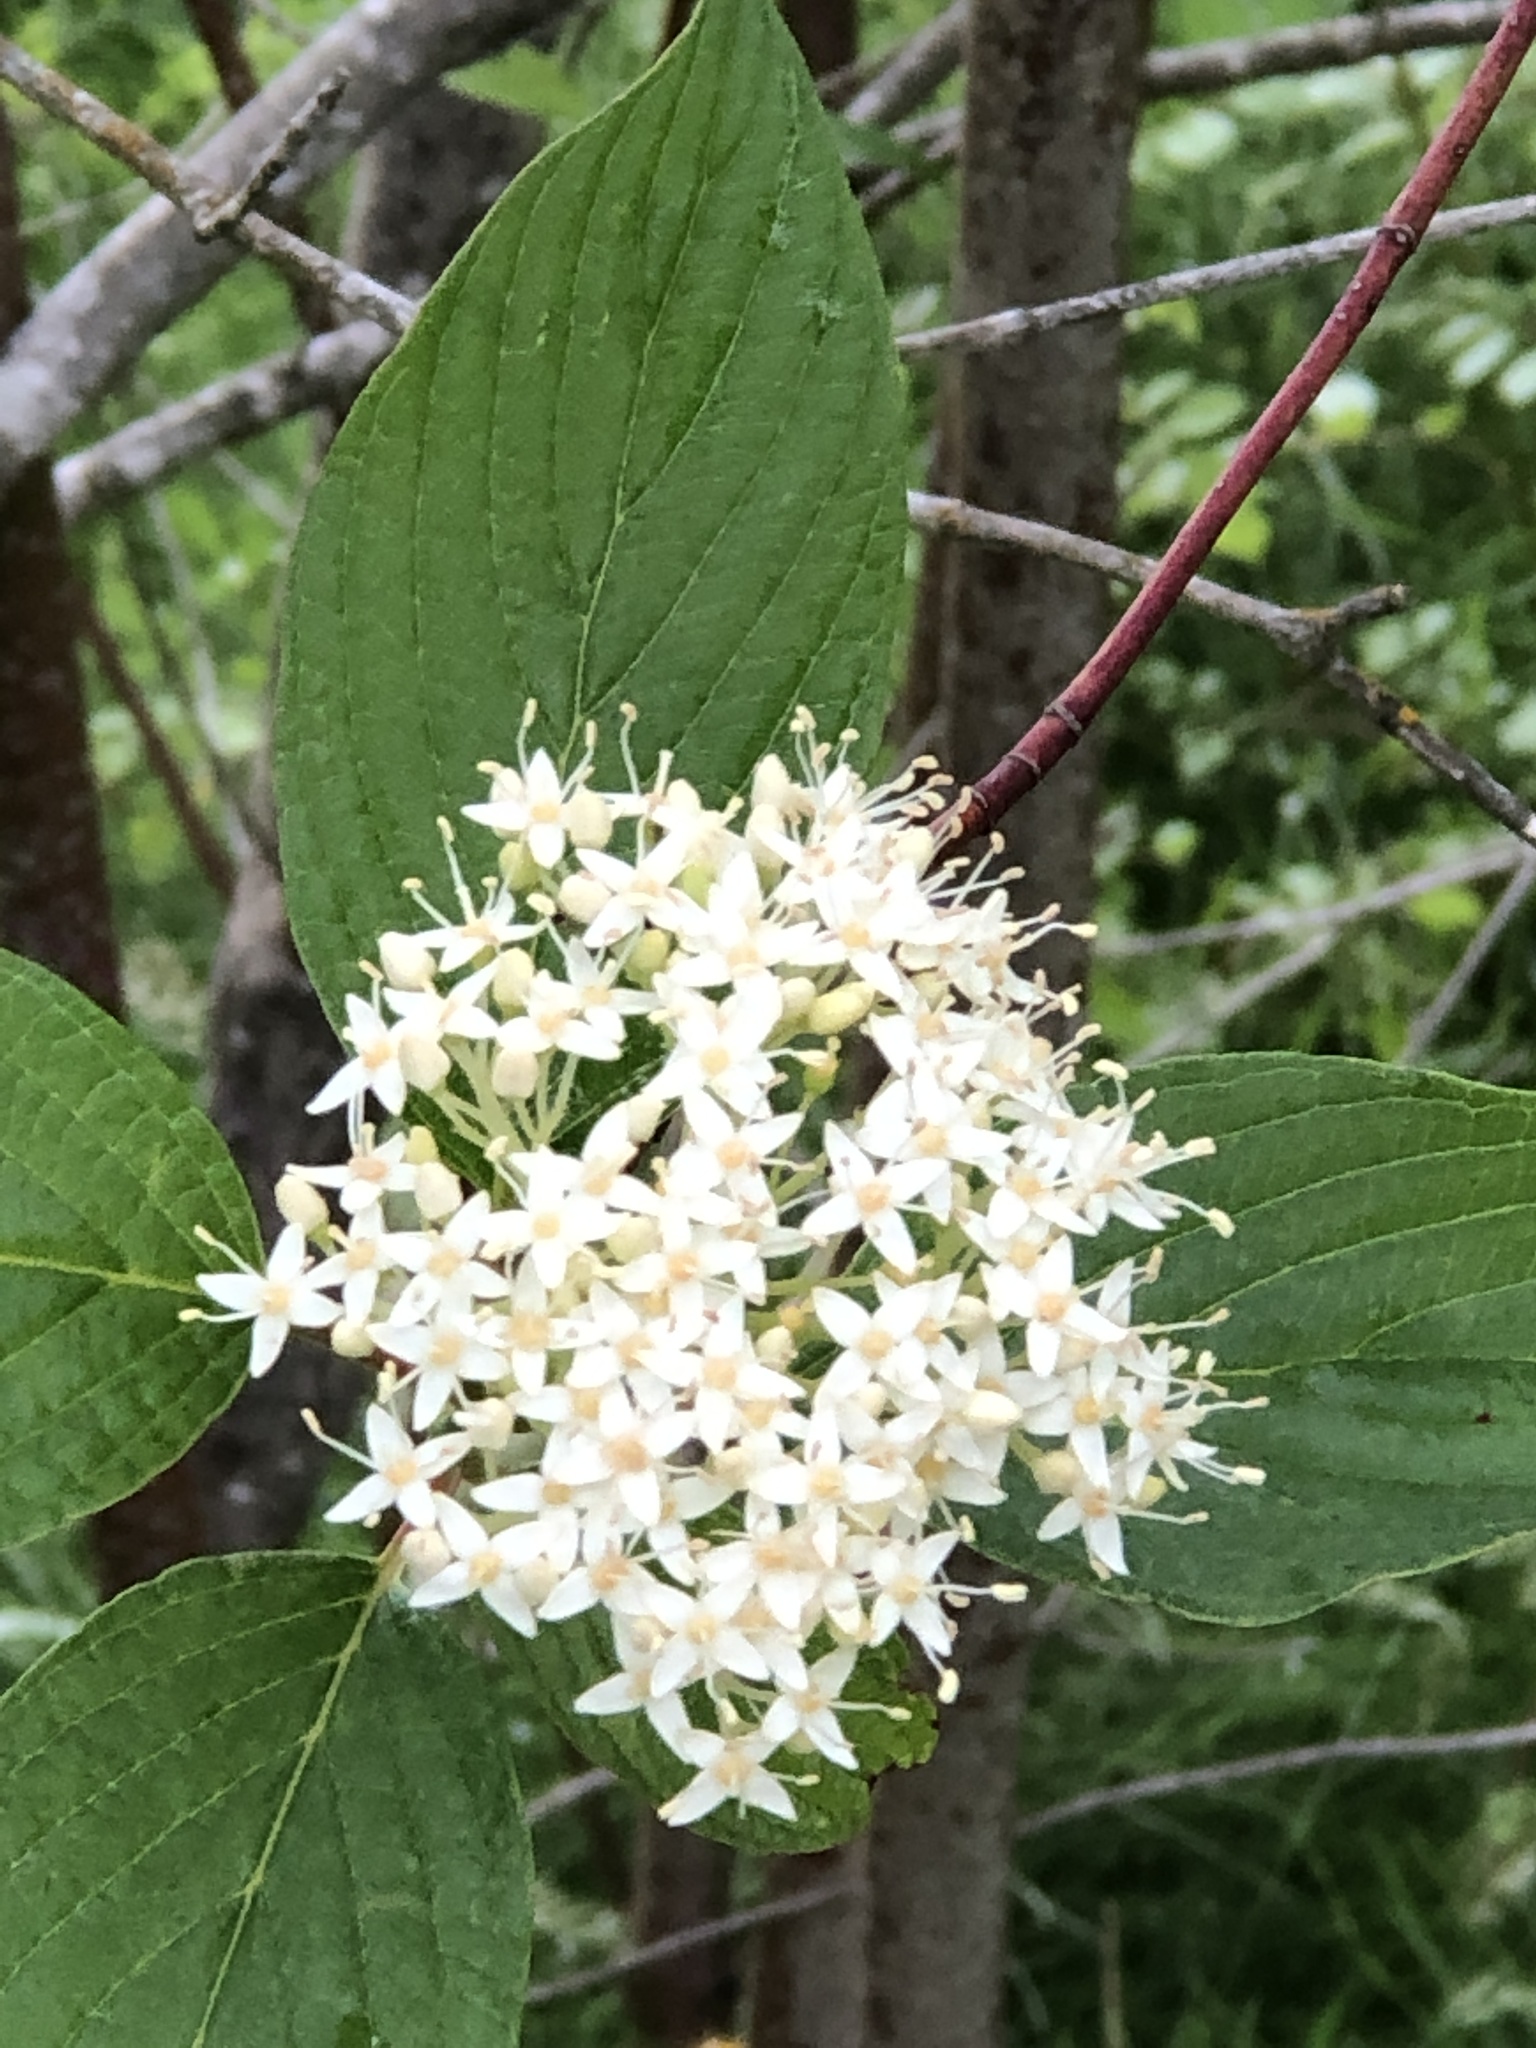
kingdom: Plantae
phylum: Tracheophyta
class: Magnoliopsida
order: Cornales
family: Cornaceae
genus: Cornus
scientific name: Cornus sericea
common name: Red-osier dogwood
